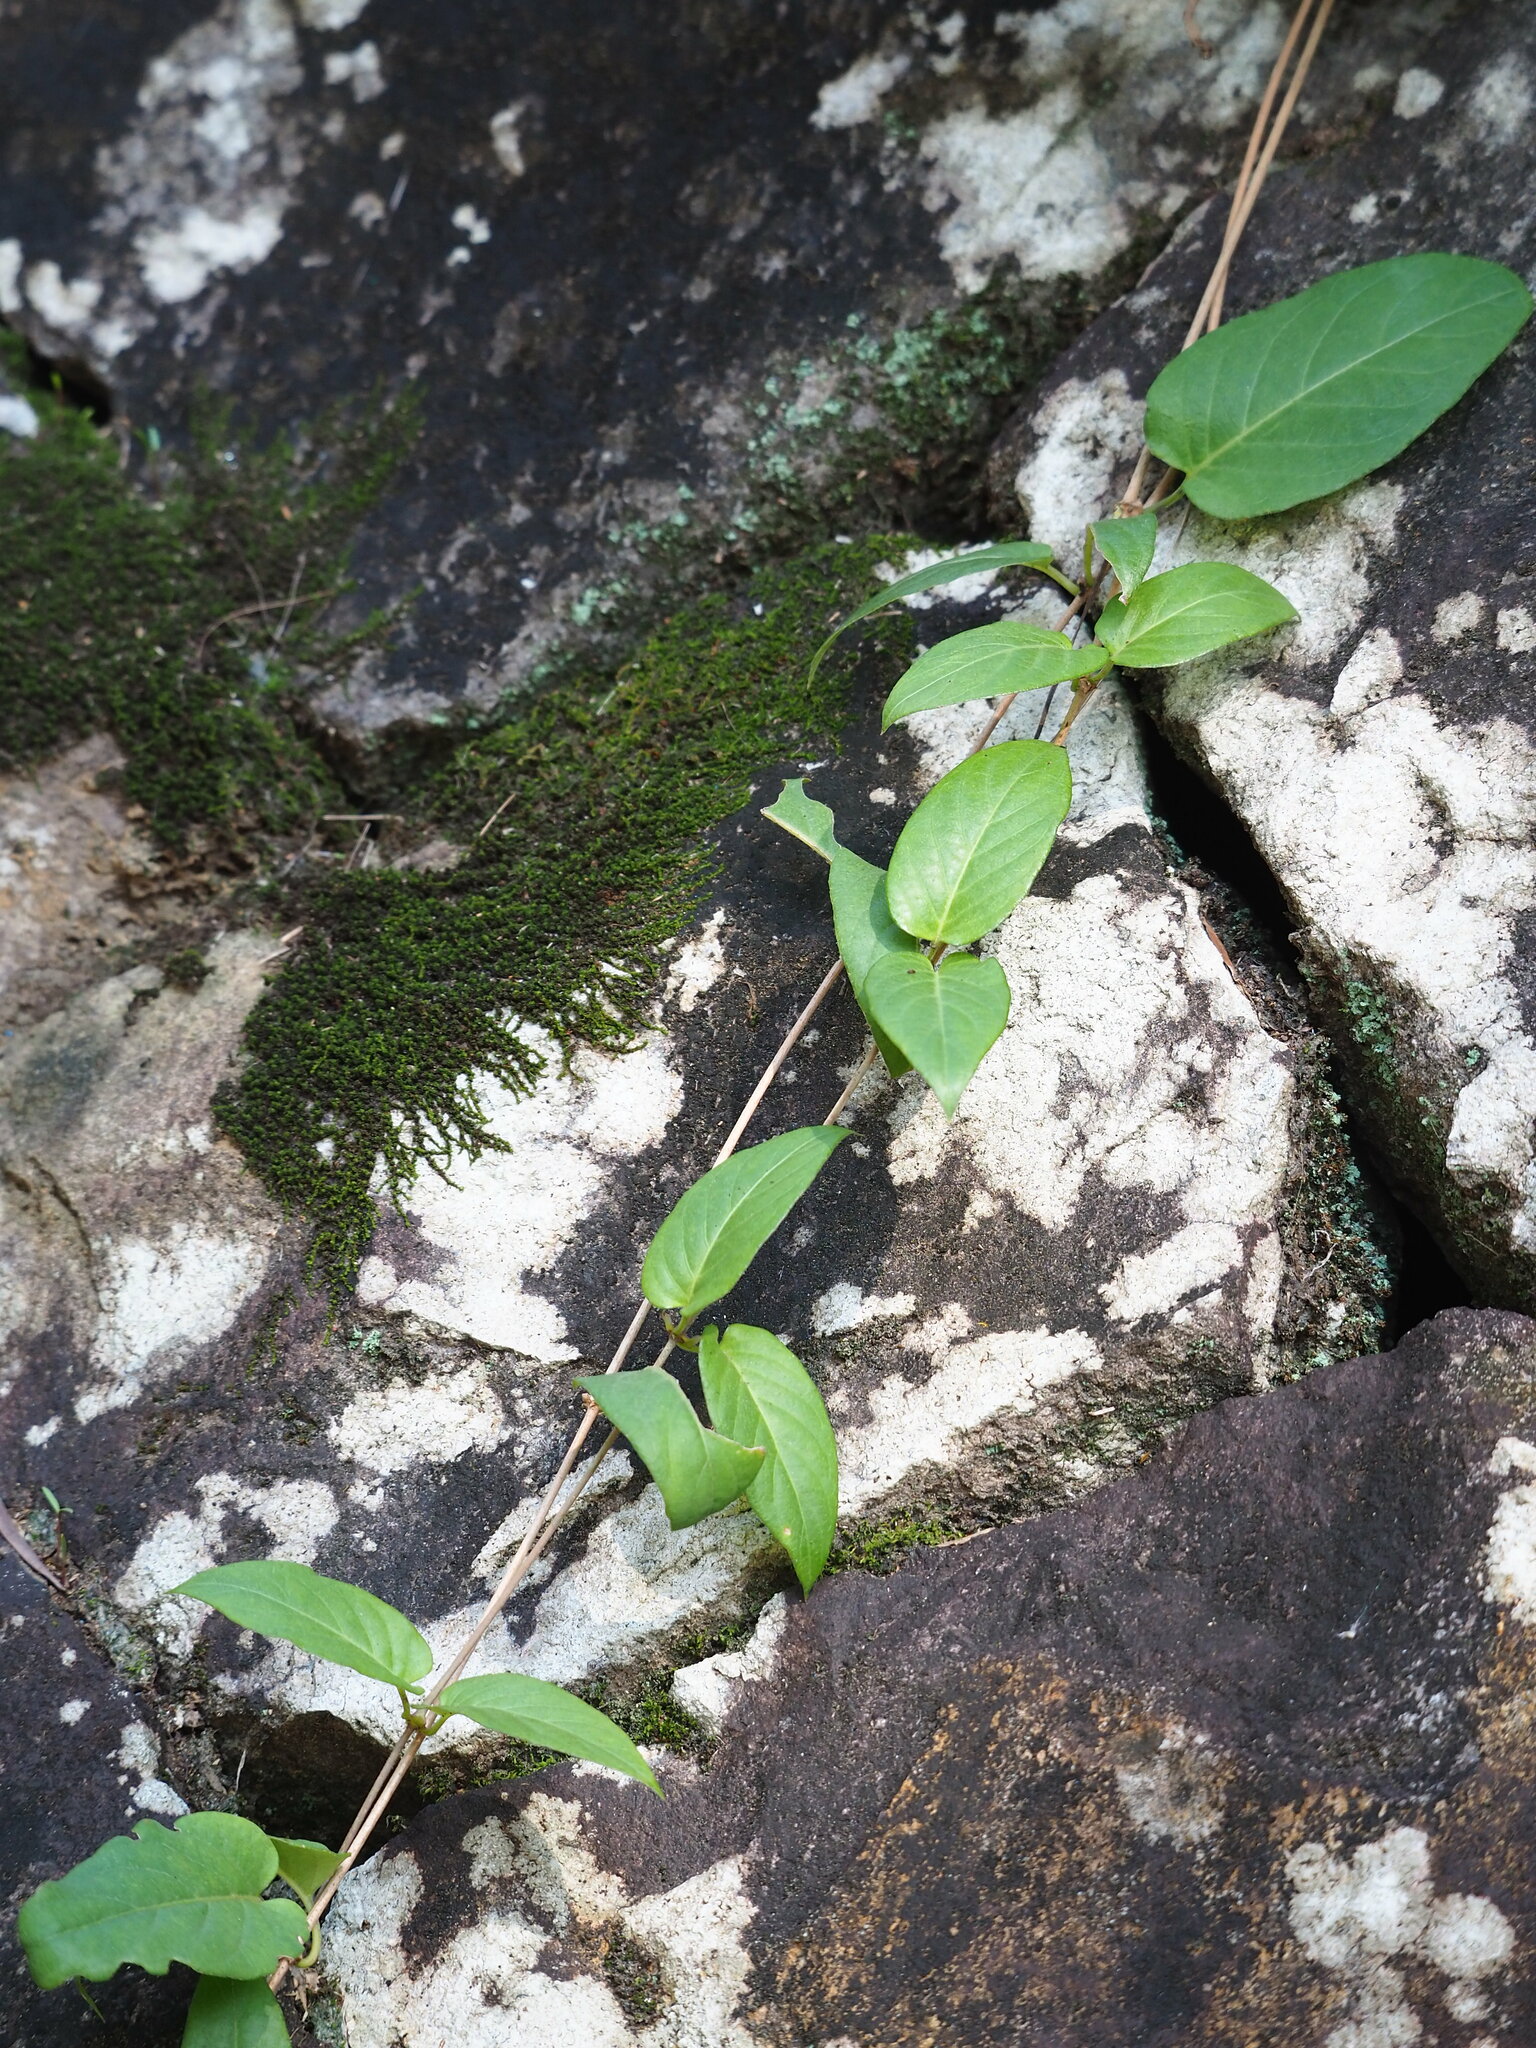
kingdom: Plantae
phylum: Tracheophyta
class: Magnoliopsida
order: Gentianales
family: Rubiaceae
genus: Paederia
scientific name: Paederia foetida
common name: Stinkvine
